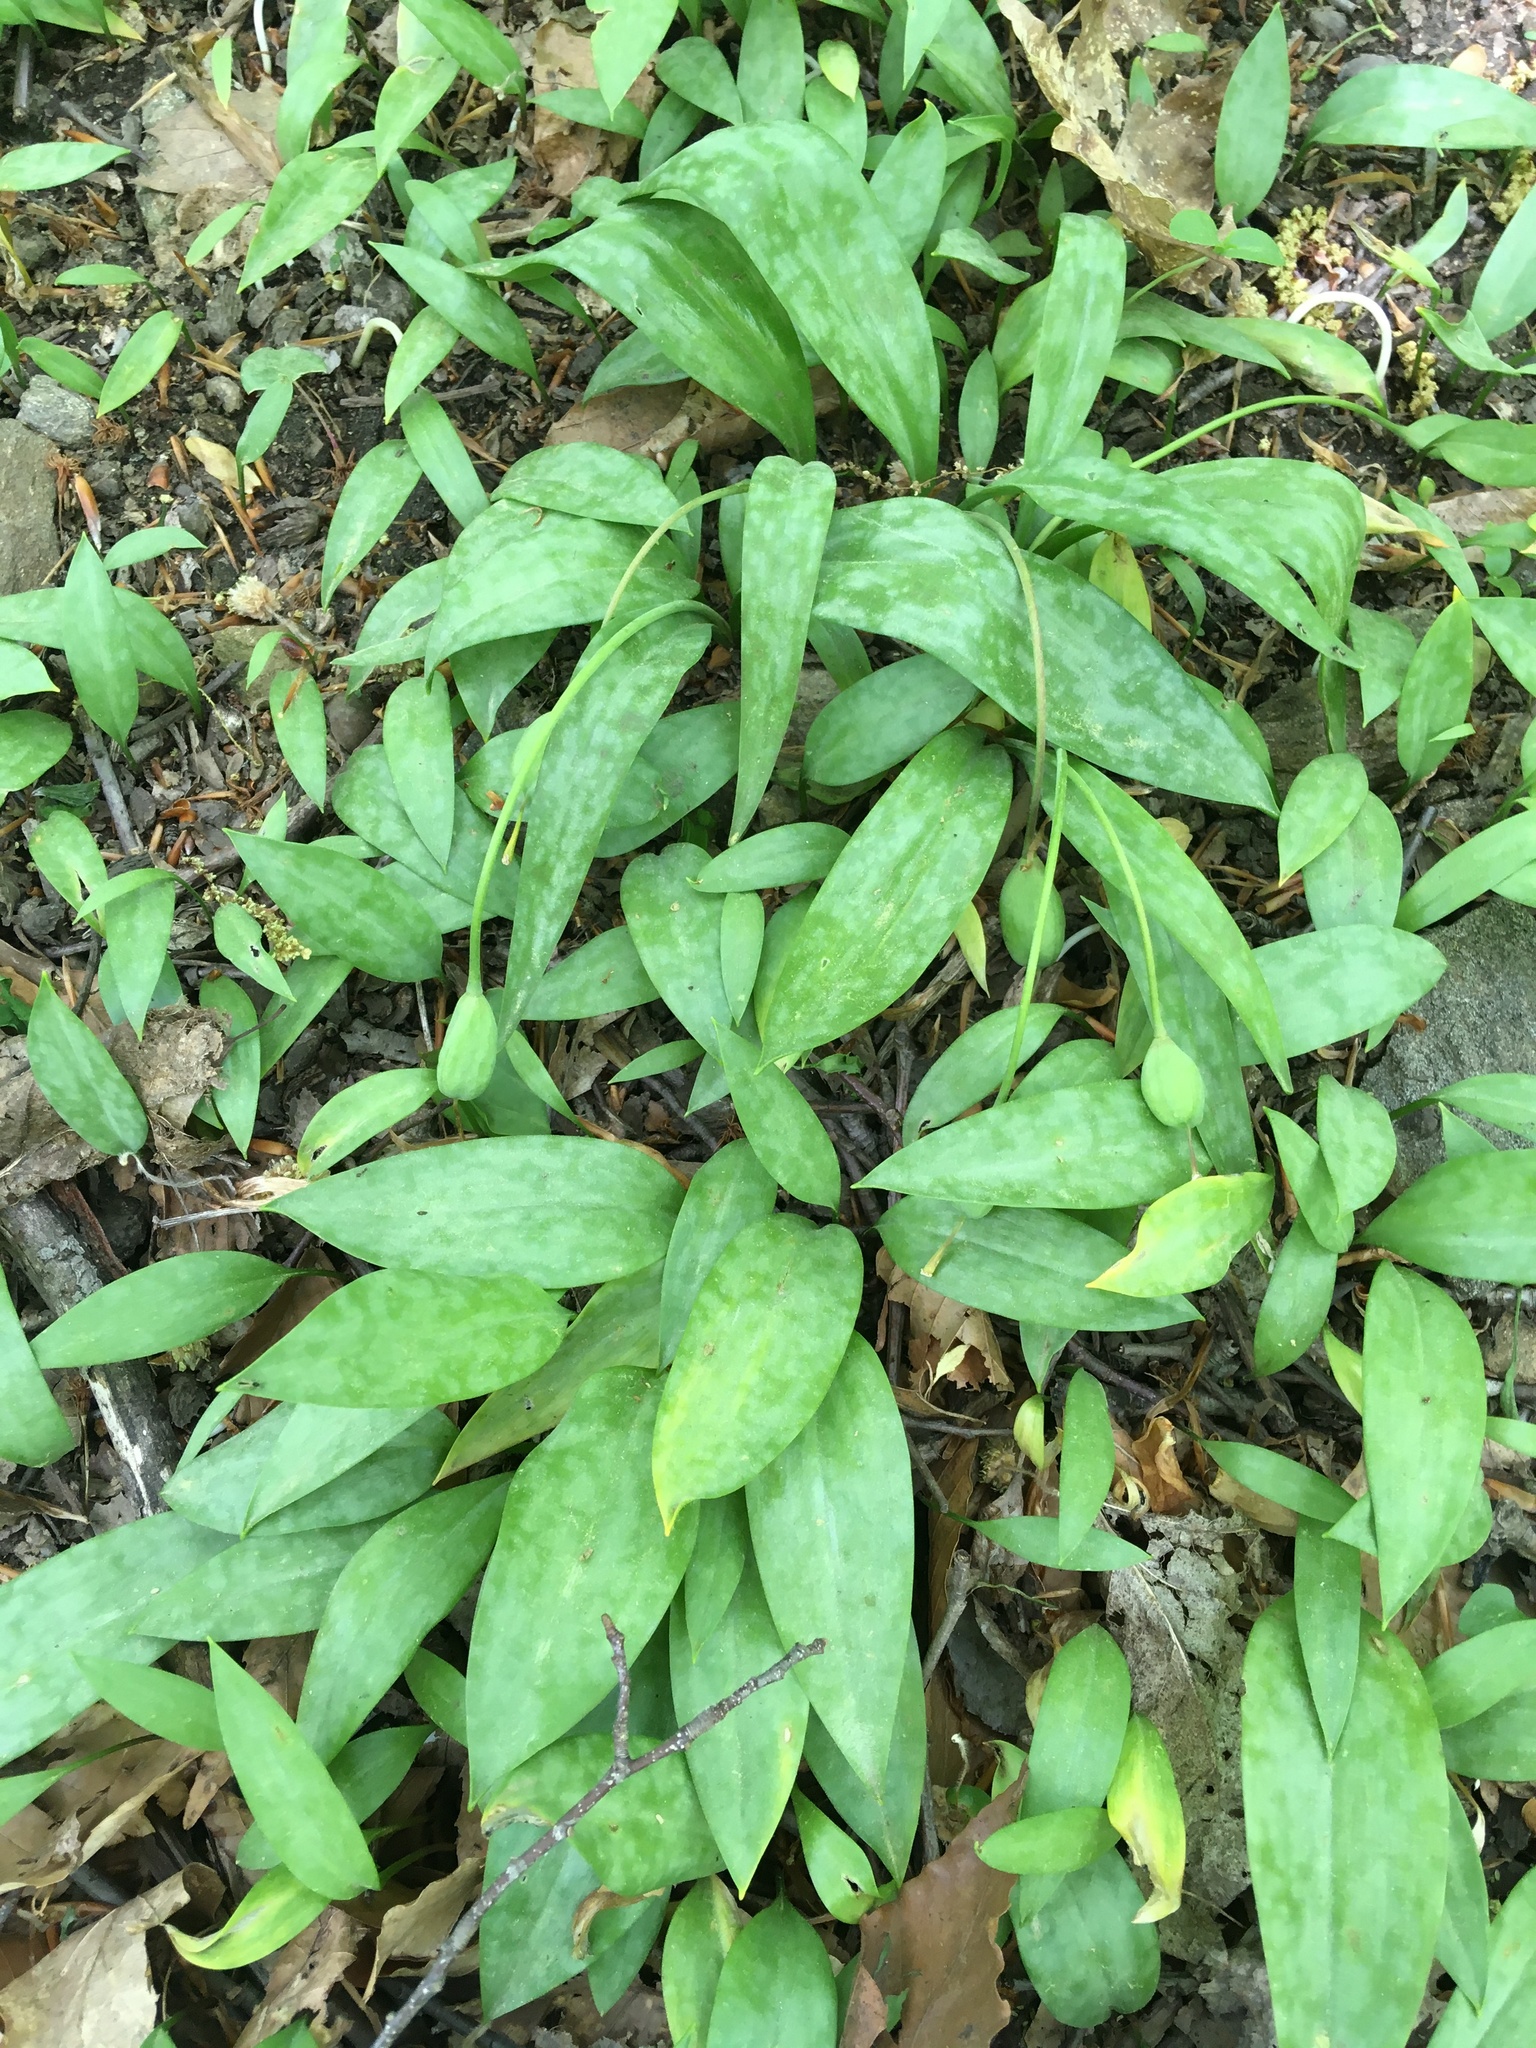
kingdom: Plantae
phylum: Tracheophyta
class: Liliopsida
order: Liliales
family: Liliaceae
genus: Erythronium
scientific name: Erythronium americanum
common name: Yellow adder's-tongue
